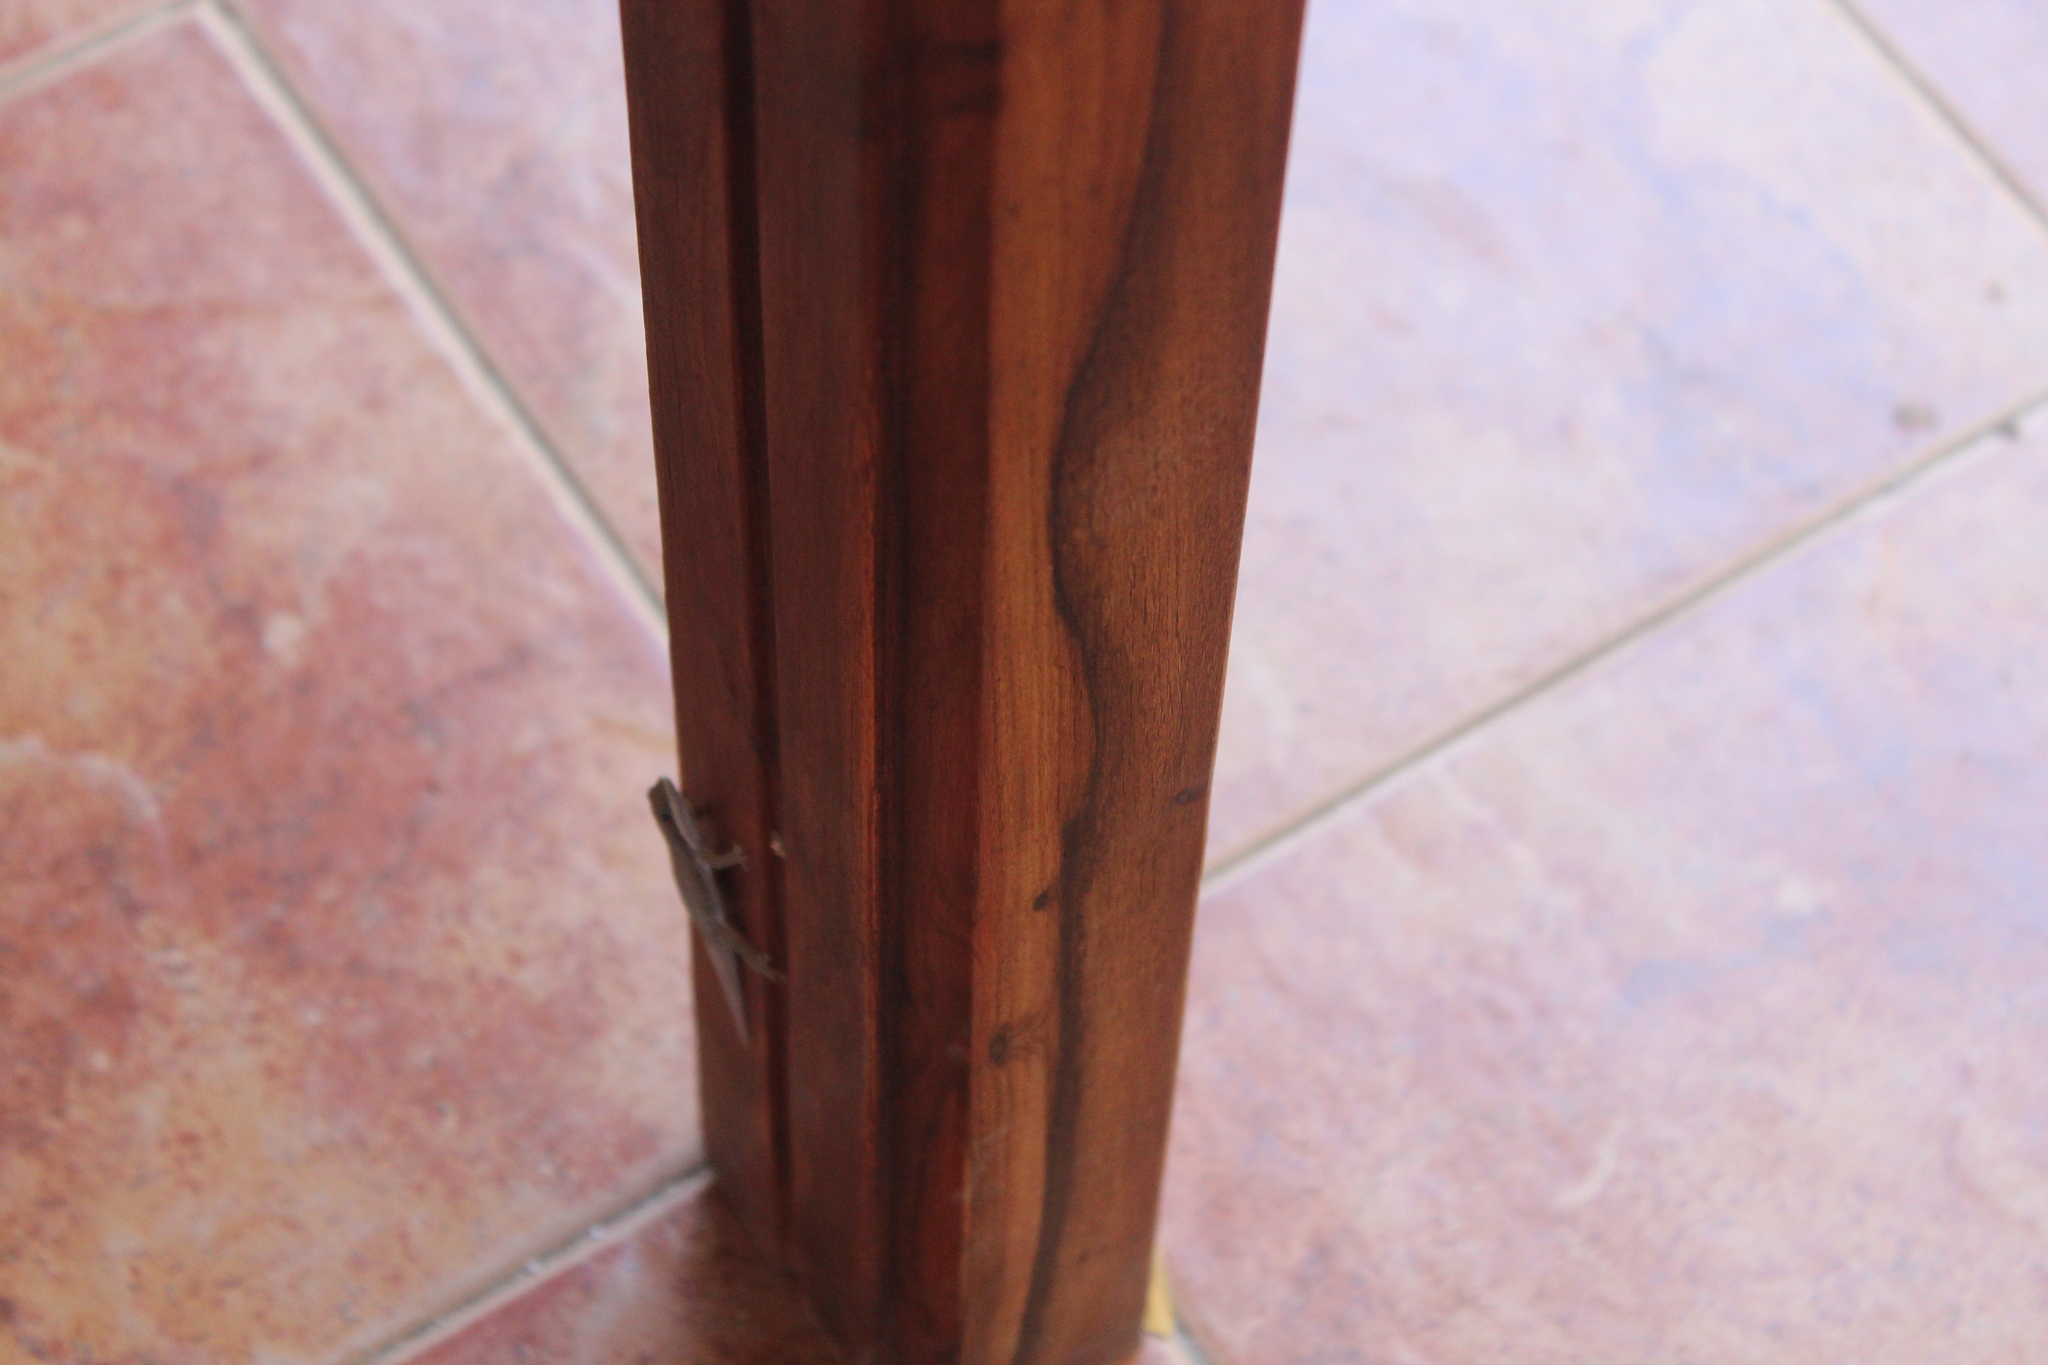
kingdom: Animalia
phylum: Chordata
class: Squamata
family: Gekkonidae
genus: Phelsuma
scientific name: Phelsuma modesta
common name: Modest day gecko
